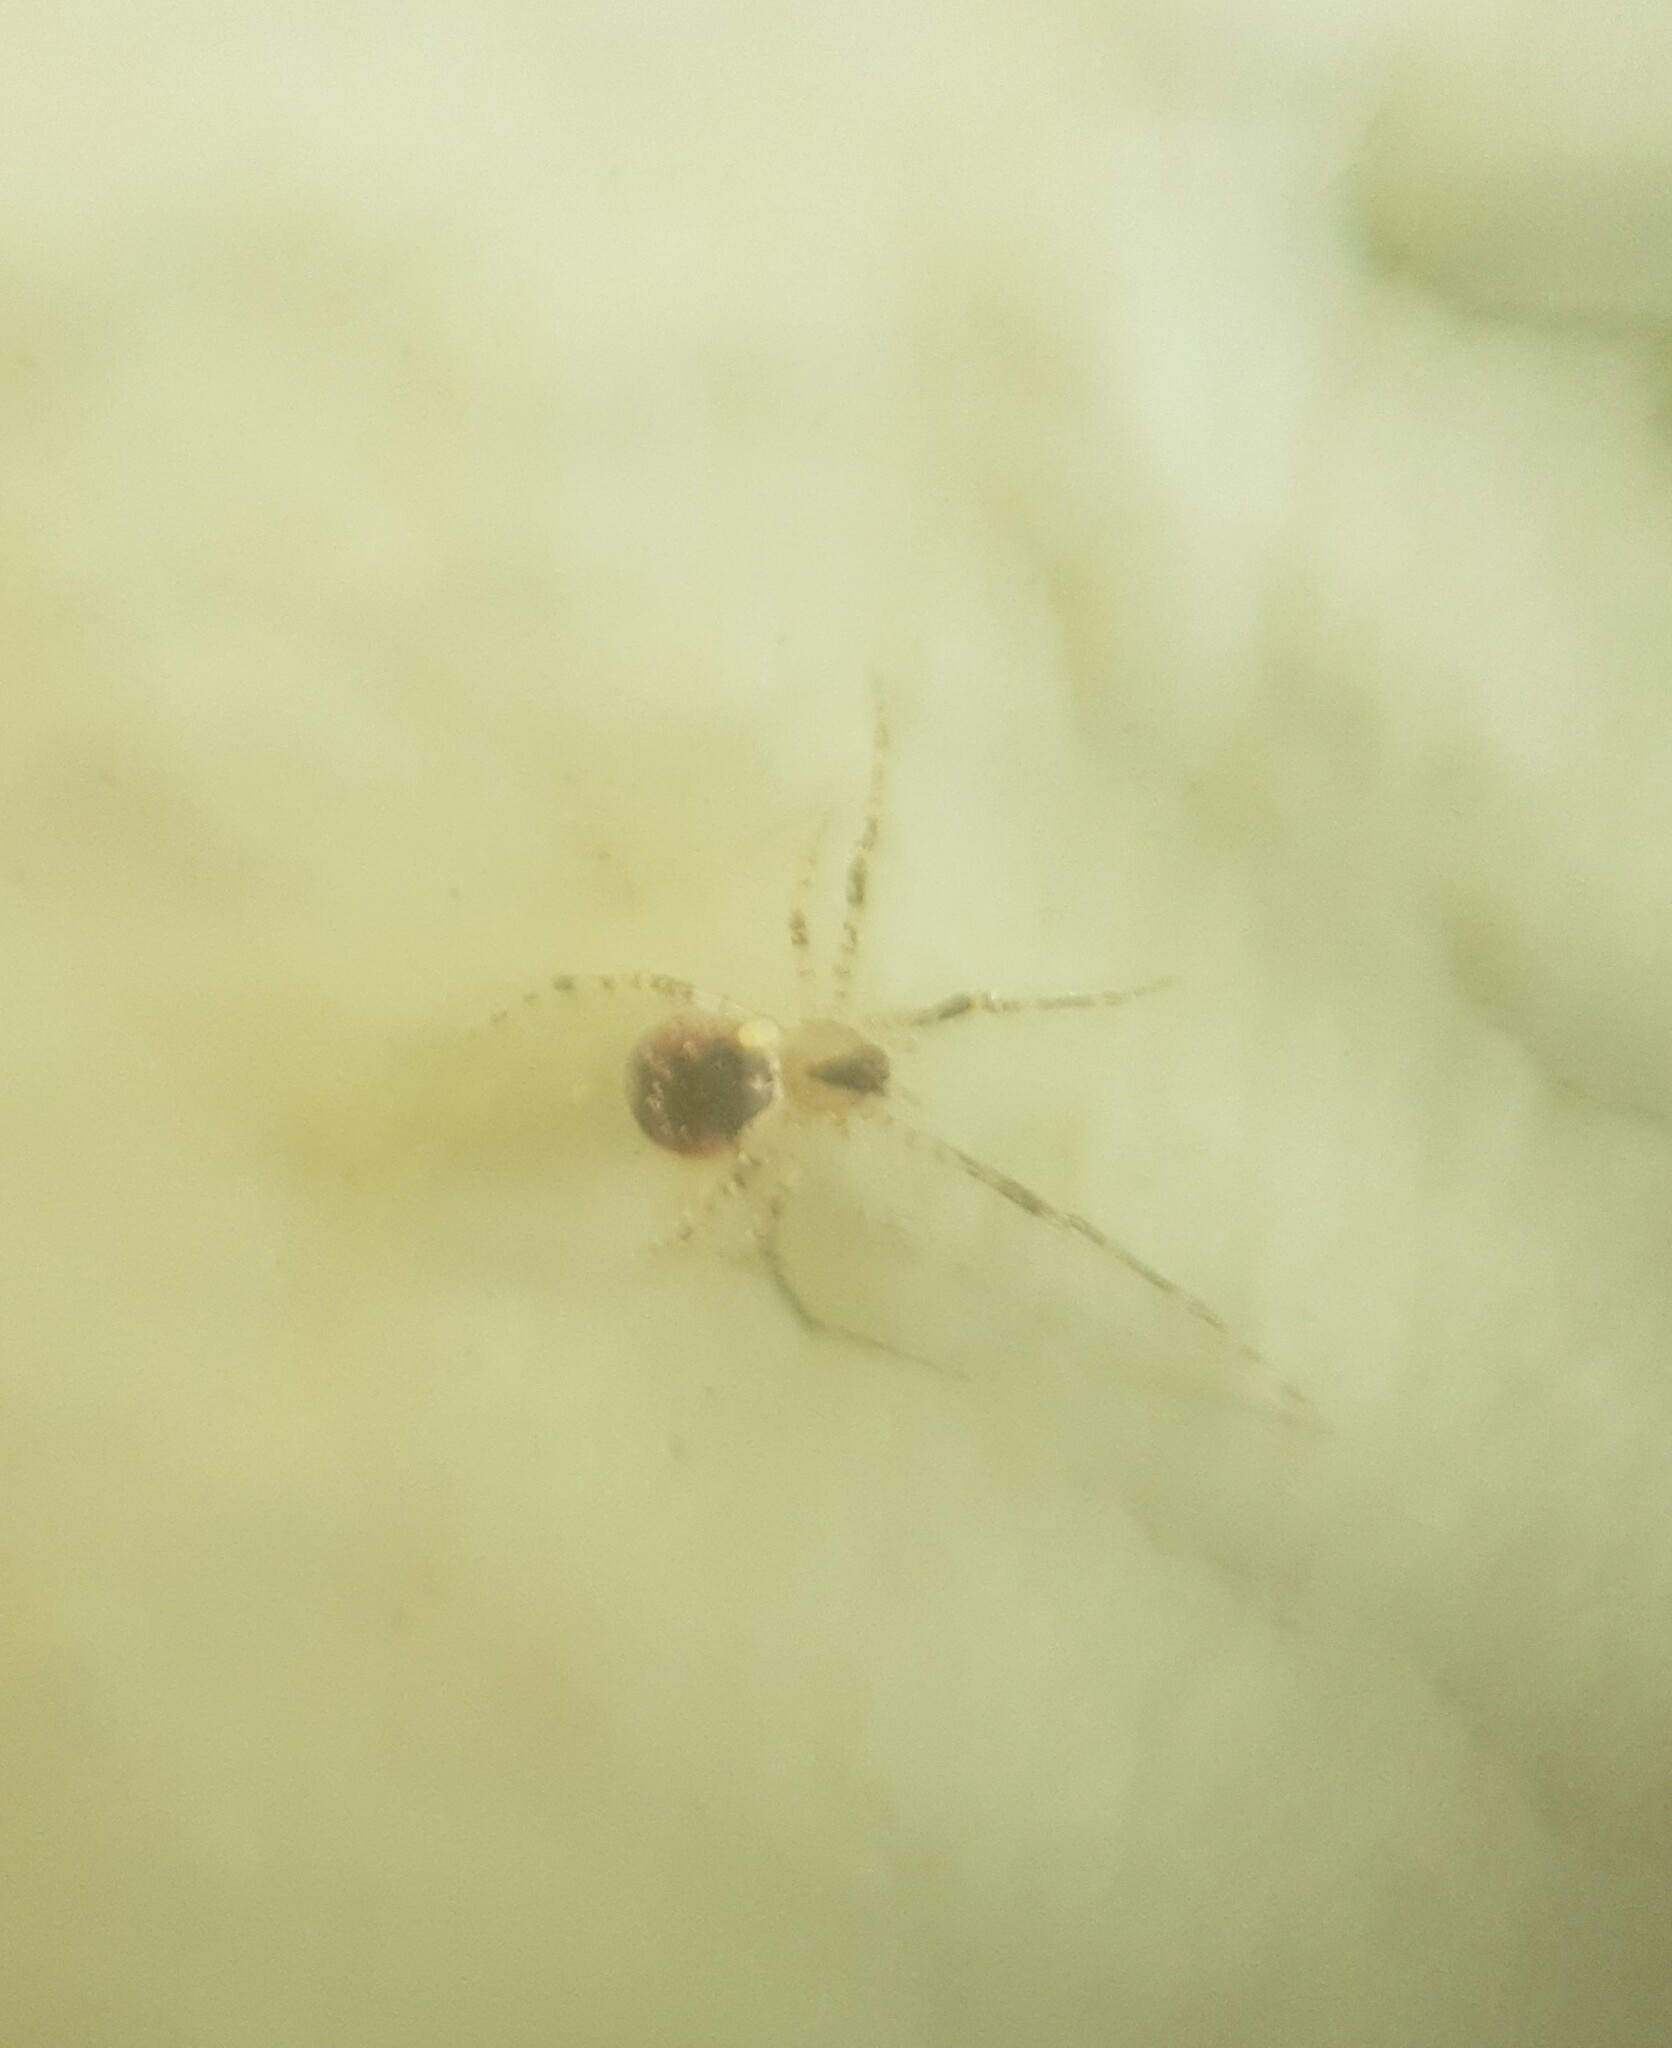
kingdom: Animalia
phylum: Arthropoda
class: Arachnida
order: Araneae
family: Theridiidae
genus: Platnickina
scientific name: Platnickina tincta
